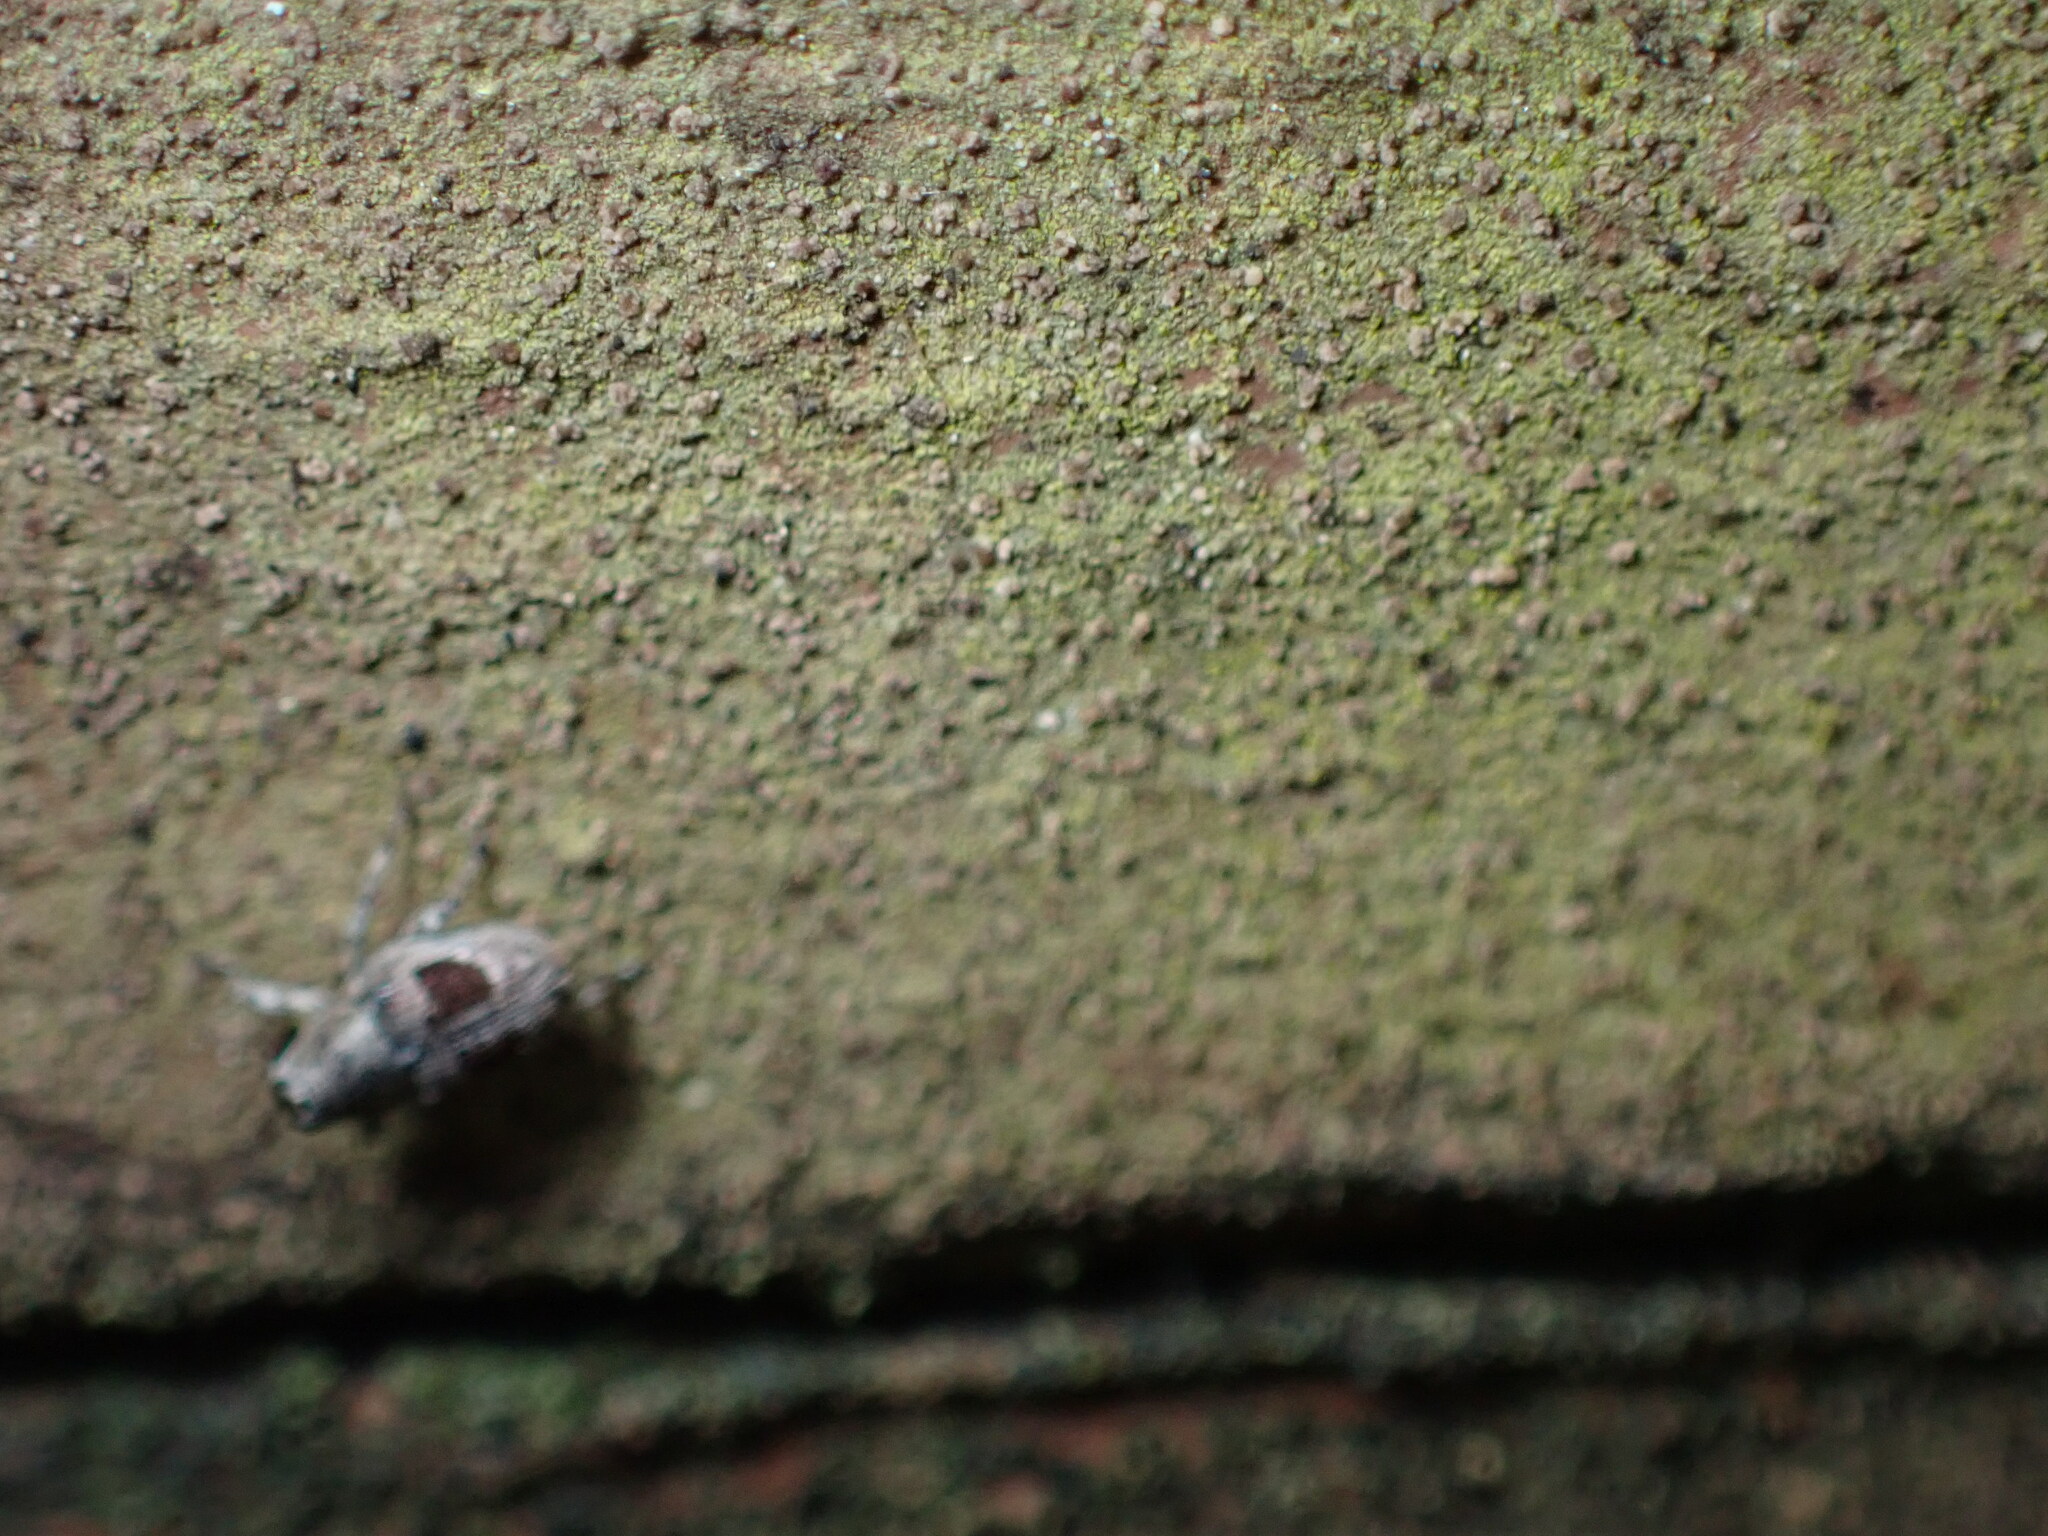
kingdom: Animalia
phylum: Arthropoda
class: Insecta
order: Coleoptera
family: Curculionidae
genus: Cylindrocopturus
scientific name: Cylindrocopturus binotatus
